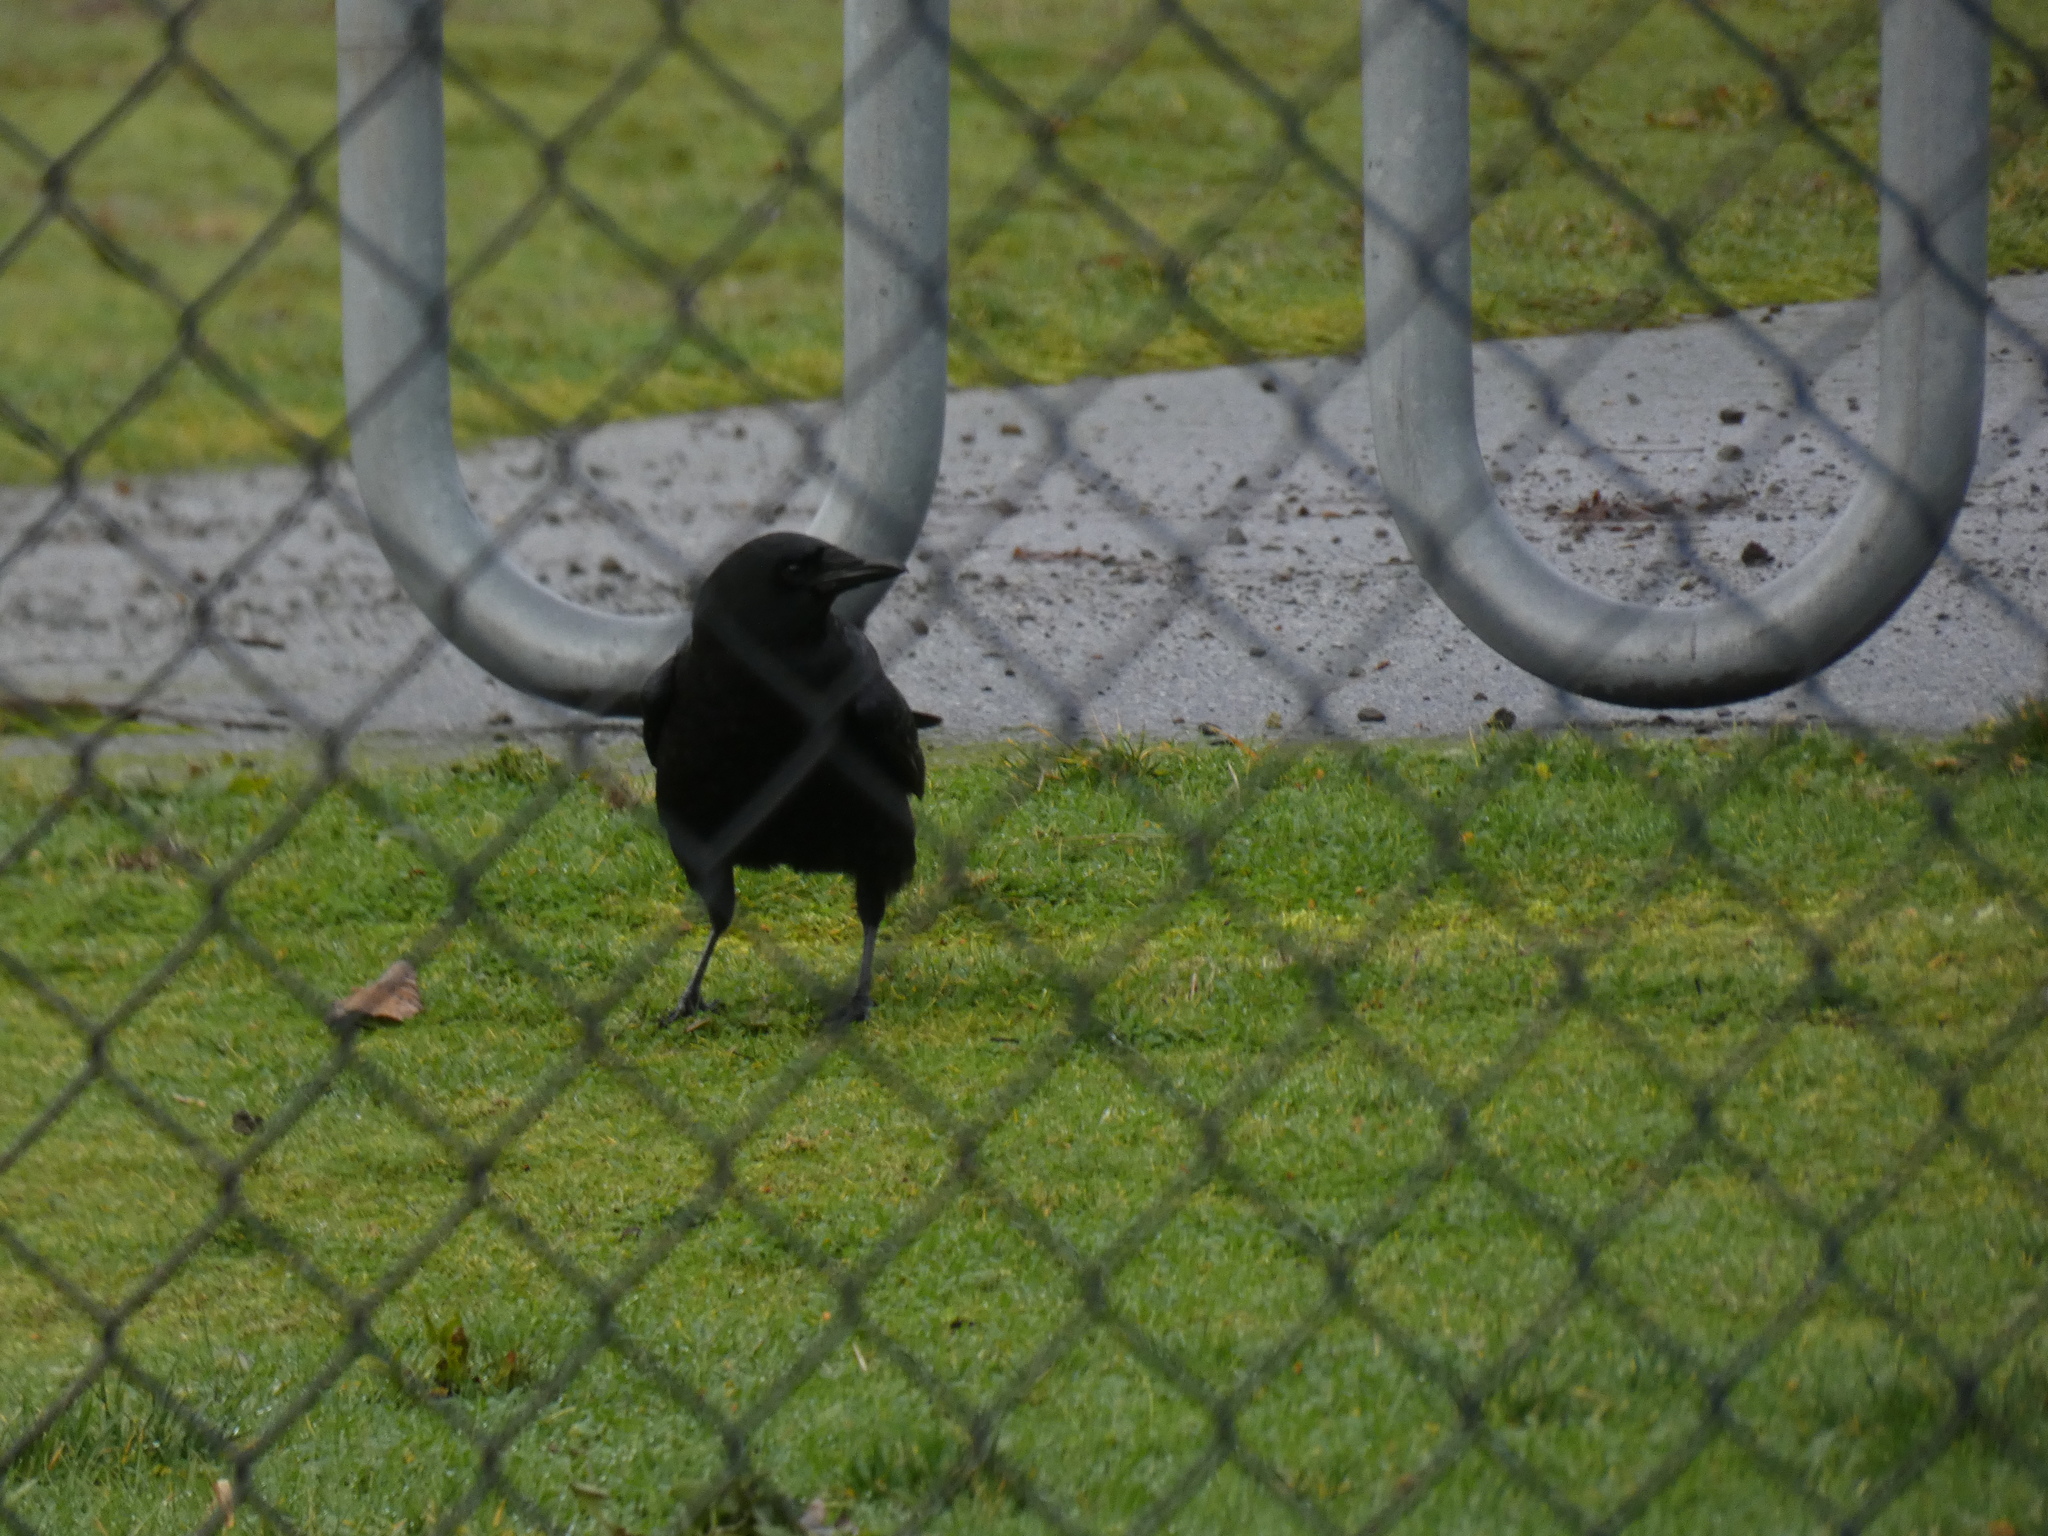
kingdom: Animalia
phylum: Chordata
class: Aves
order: Passeriformes
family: Corvidae
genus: Corvus
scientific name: Corvus brachyrhynchos
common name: American crow
